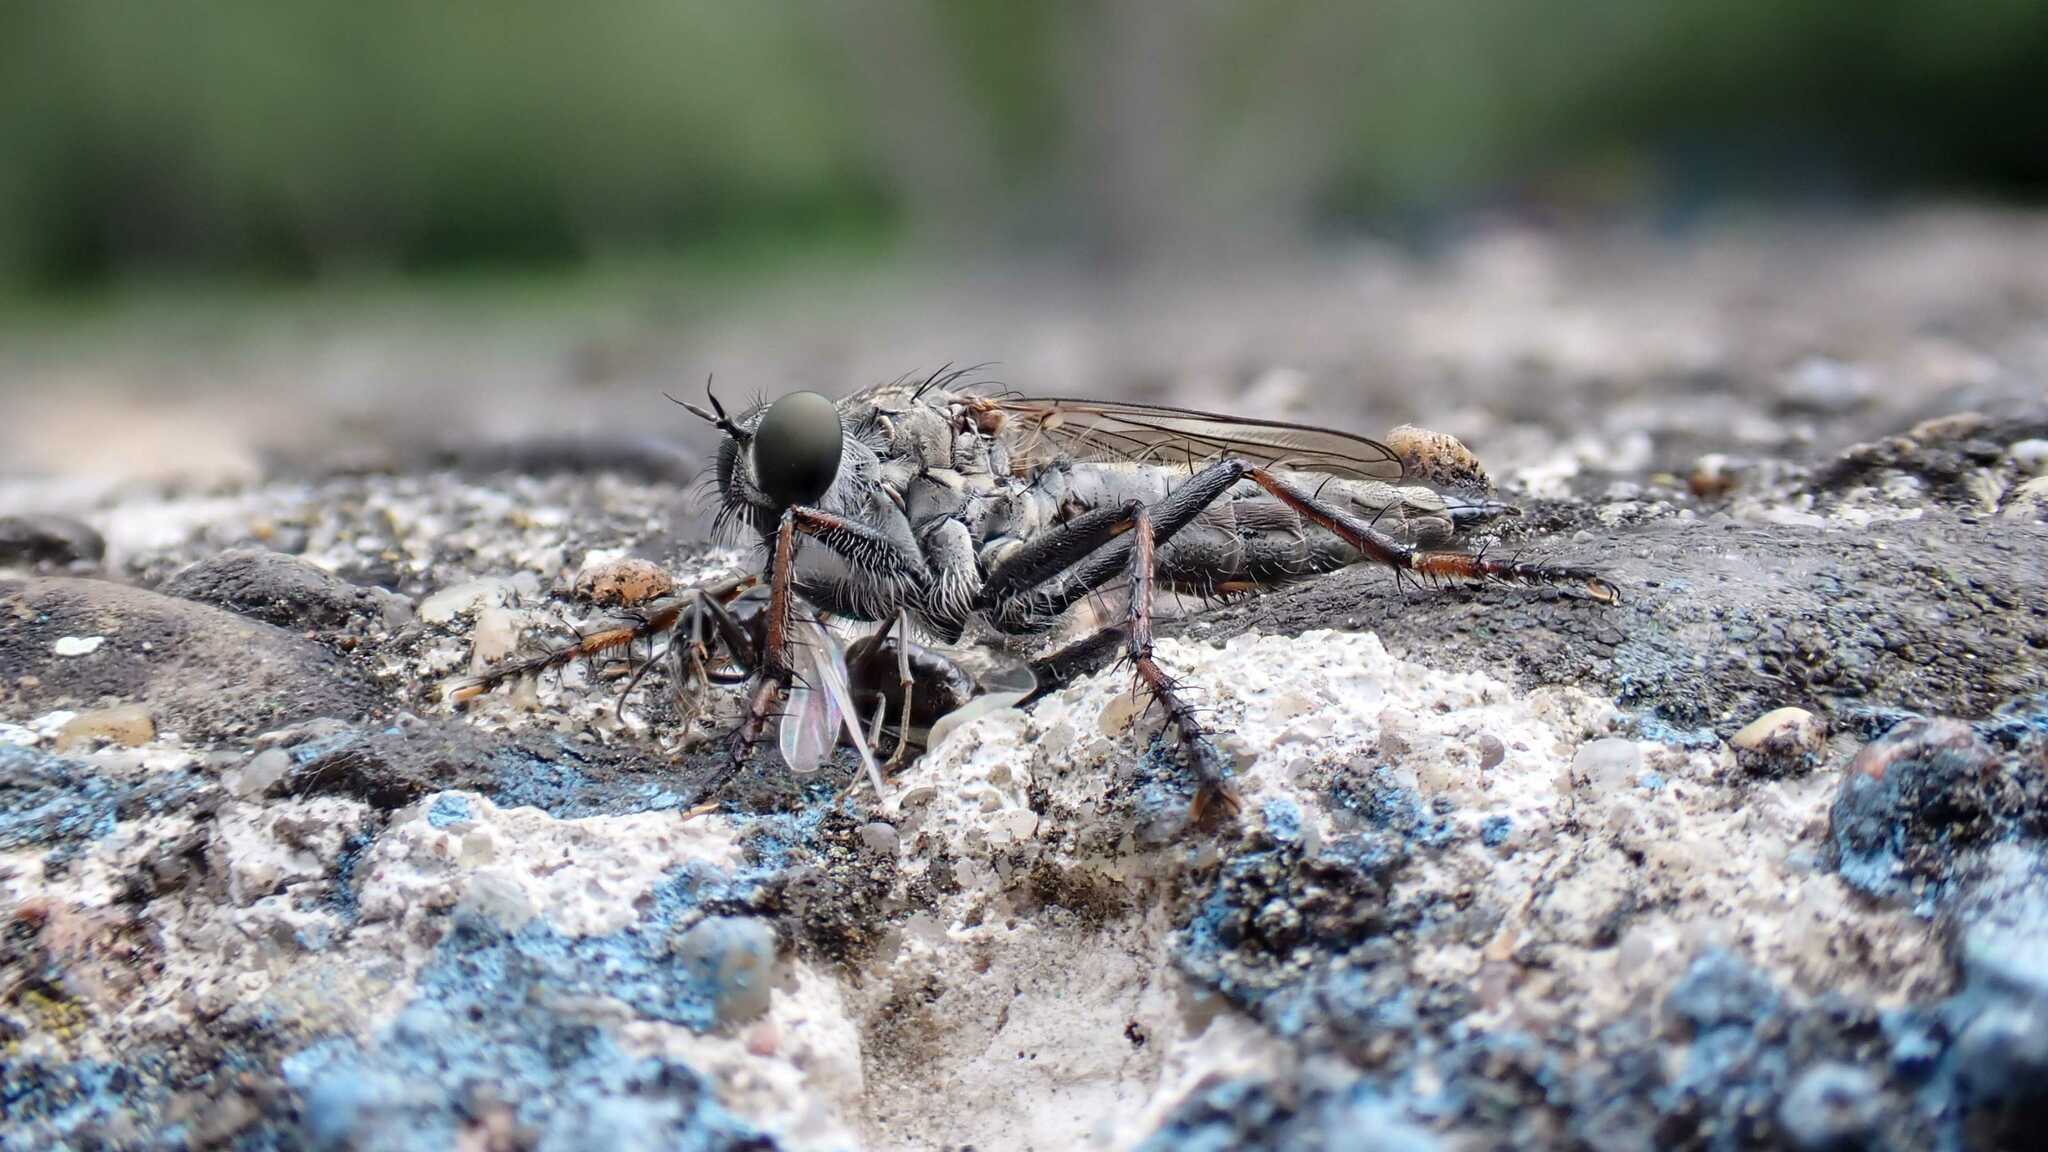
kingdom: Animalia
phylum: Arthropoda
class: Insecta
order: Diptera
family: Asilidae
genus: Machimus
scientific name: Machimus atricapillus
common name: Kite-tailed robberfly
